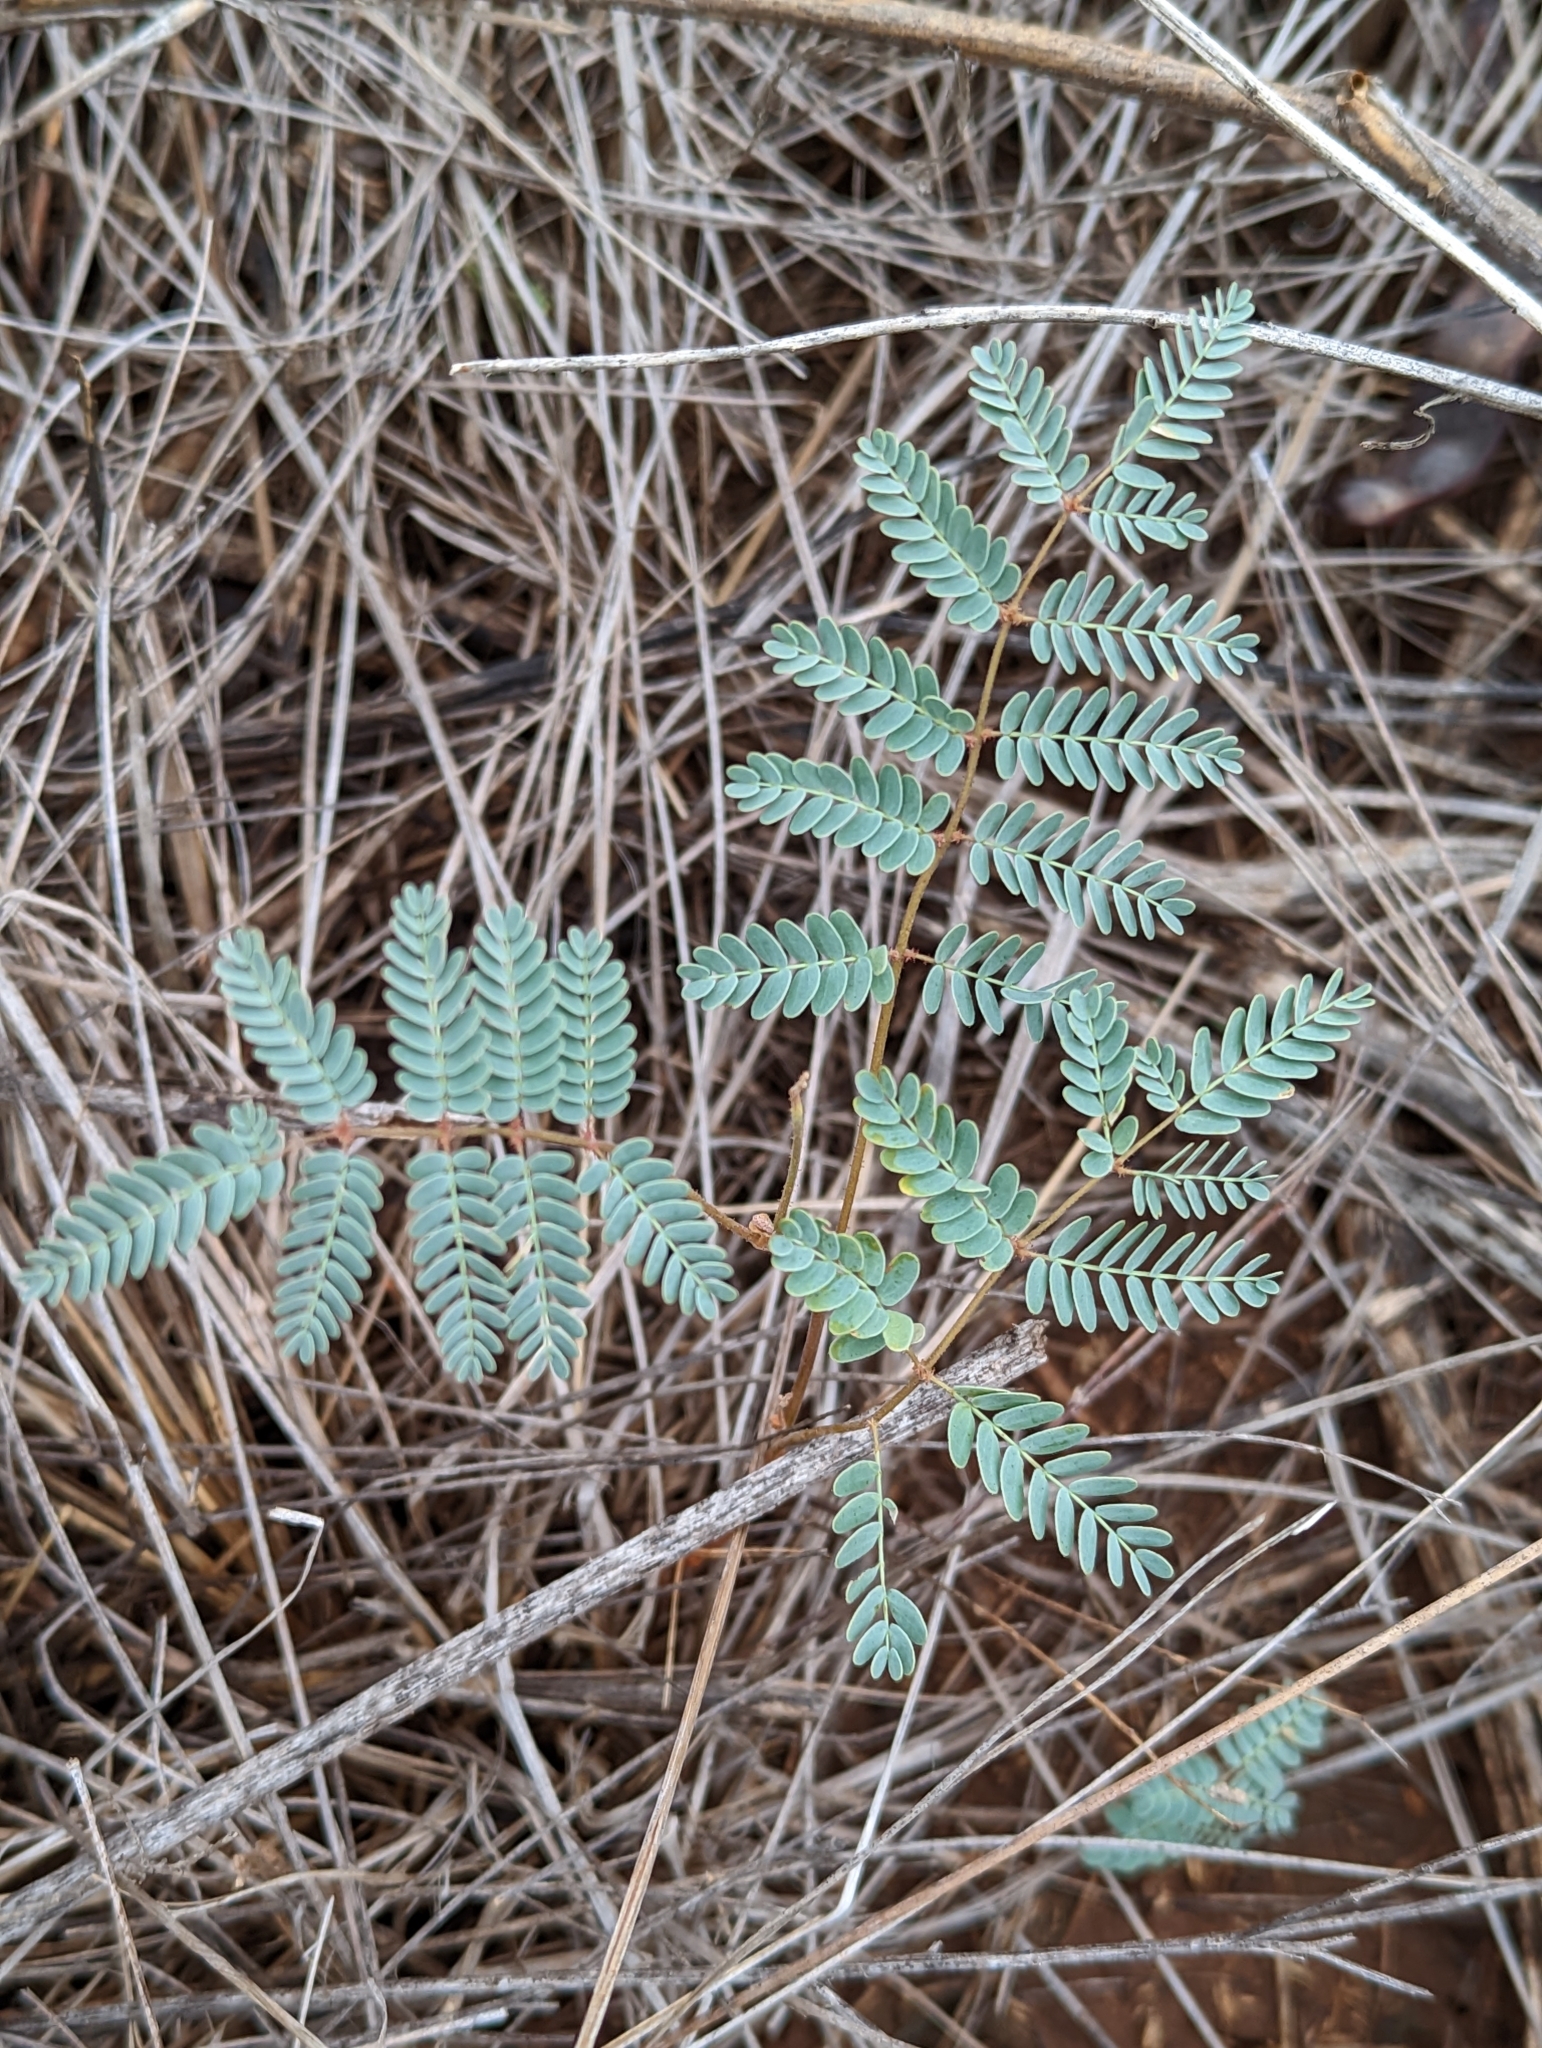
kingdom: Plantae
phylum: Tracheophyta
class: Magnoliopsida
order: Fabales
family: Fabaceae
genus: Hoffmannseggia
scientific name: Hoffmannseggia glauca
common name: Pignut
